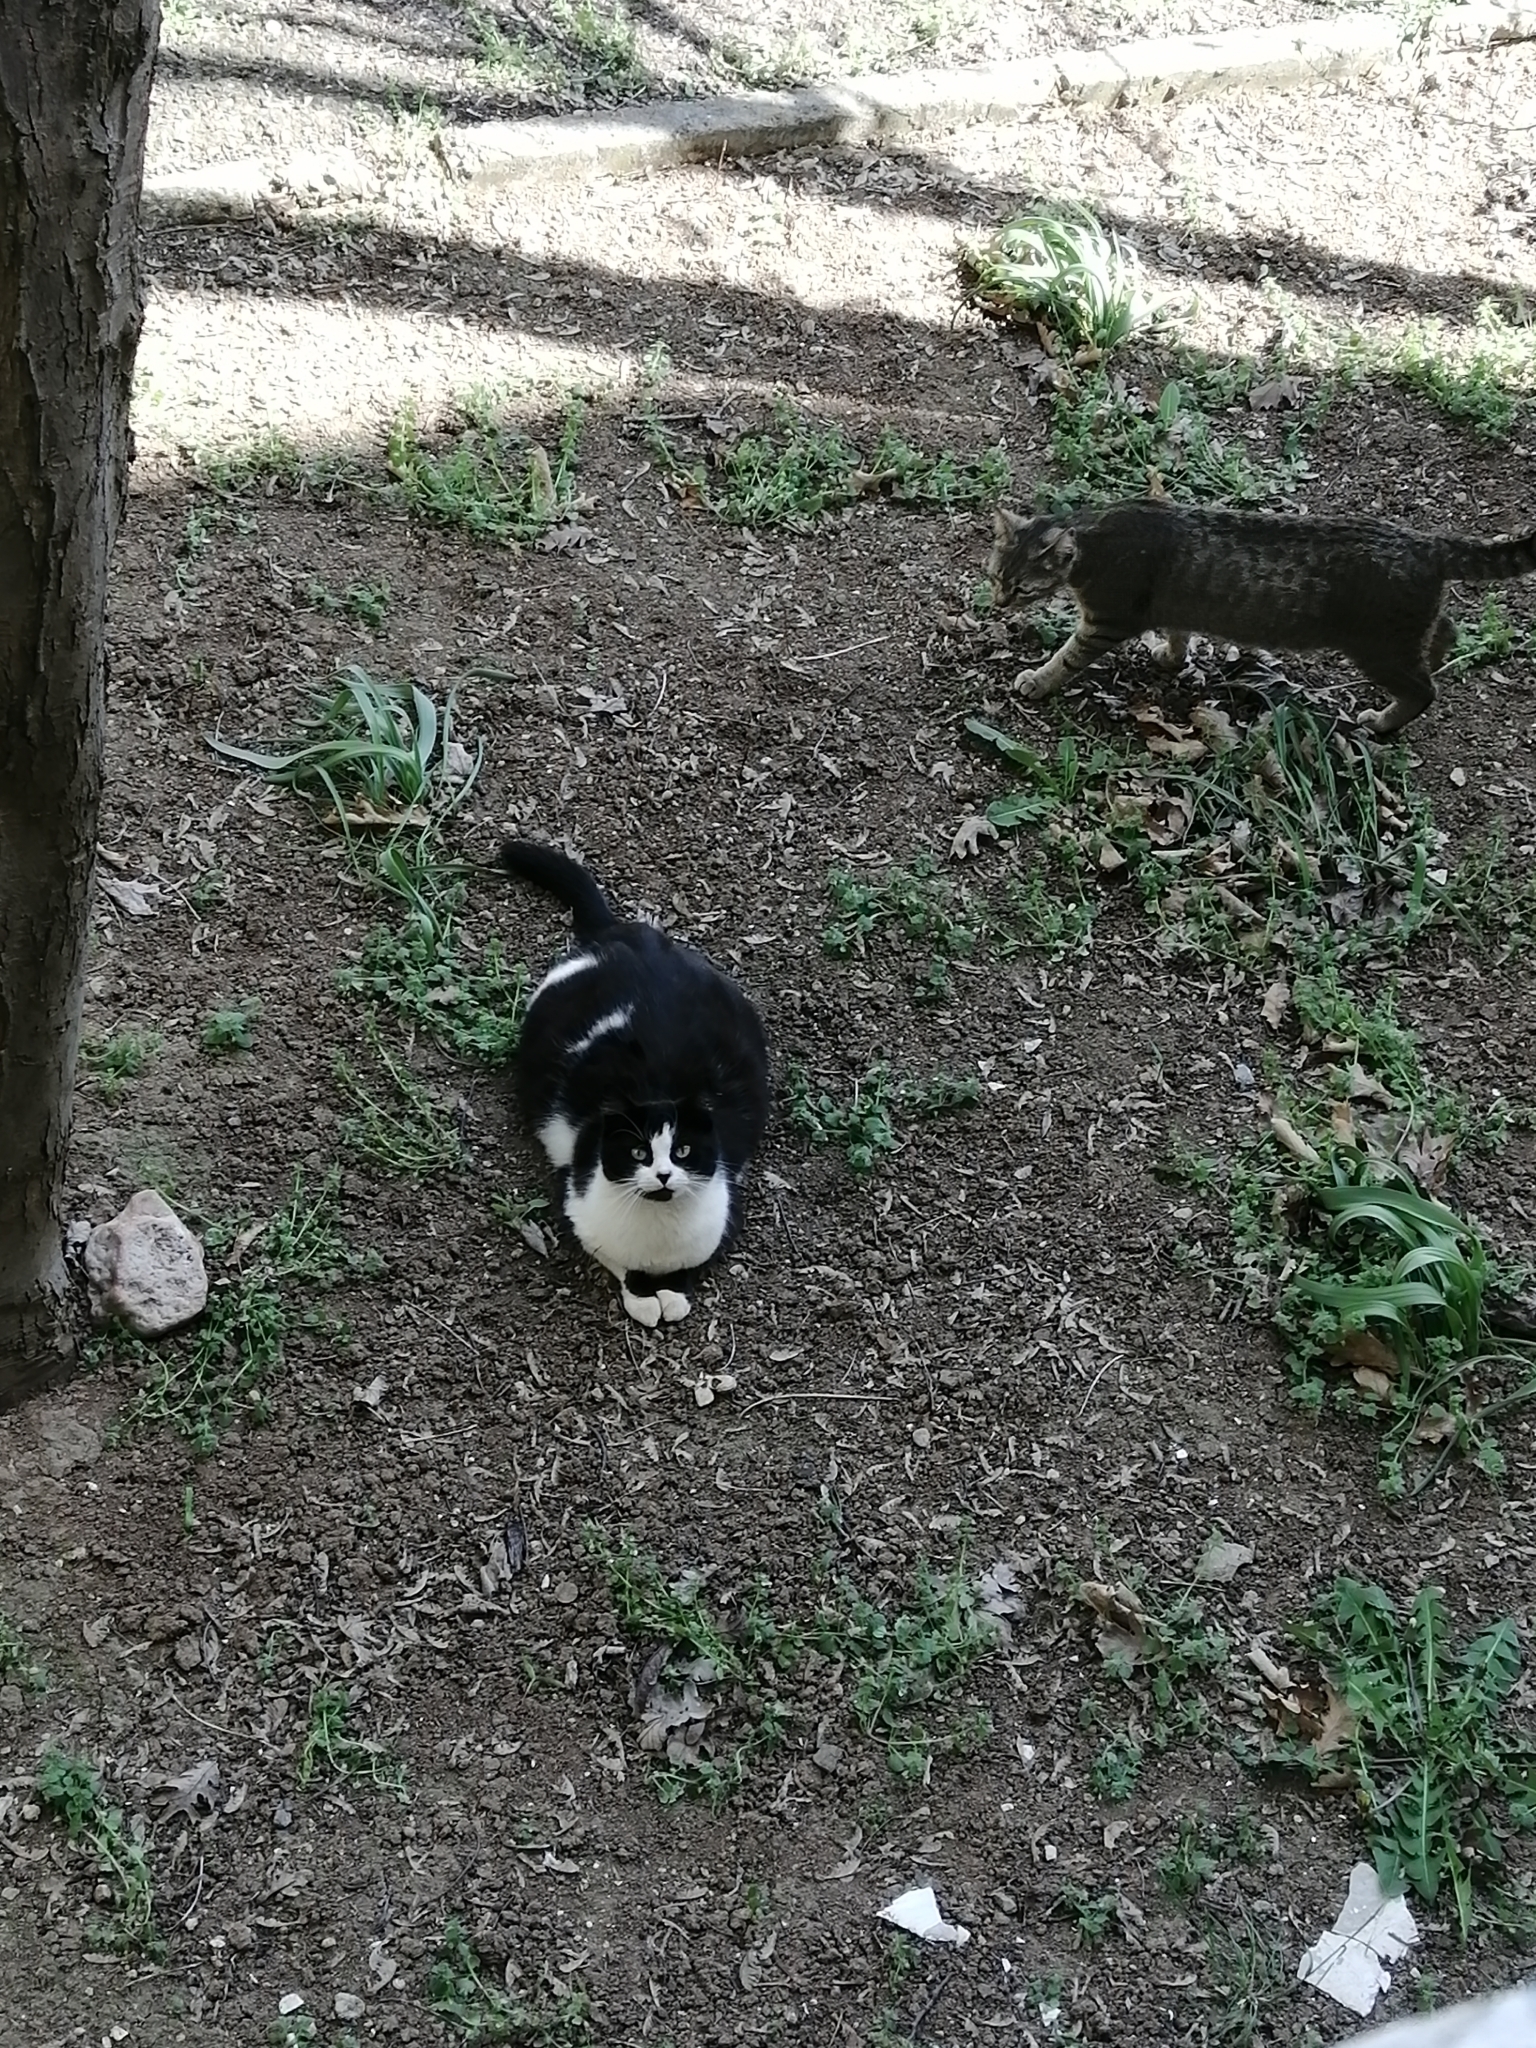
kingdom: Animalia
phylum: Chordata
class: Mammalia
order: Carnivora
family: Felidae
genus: Felis
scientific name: Felis catus
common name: Domestic cat
